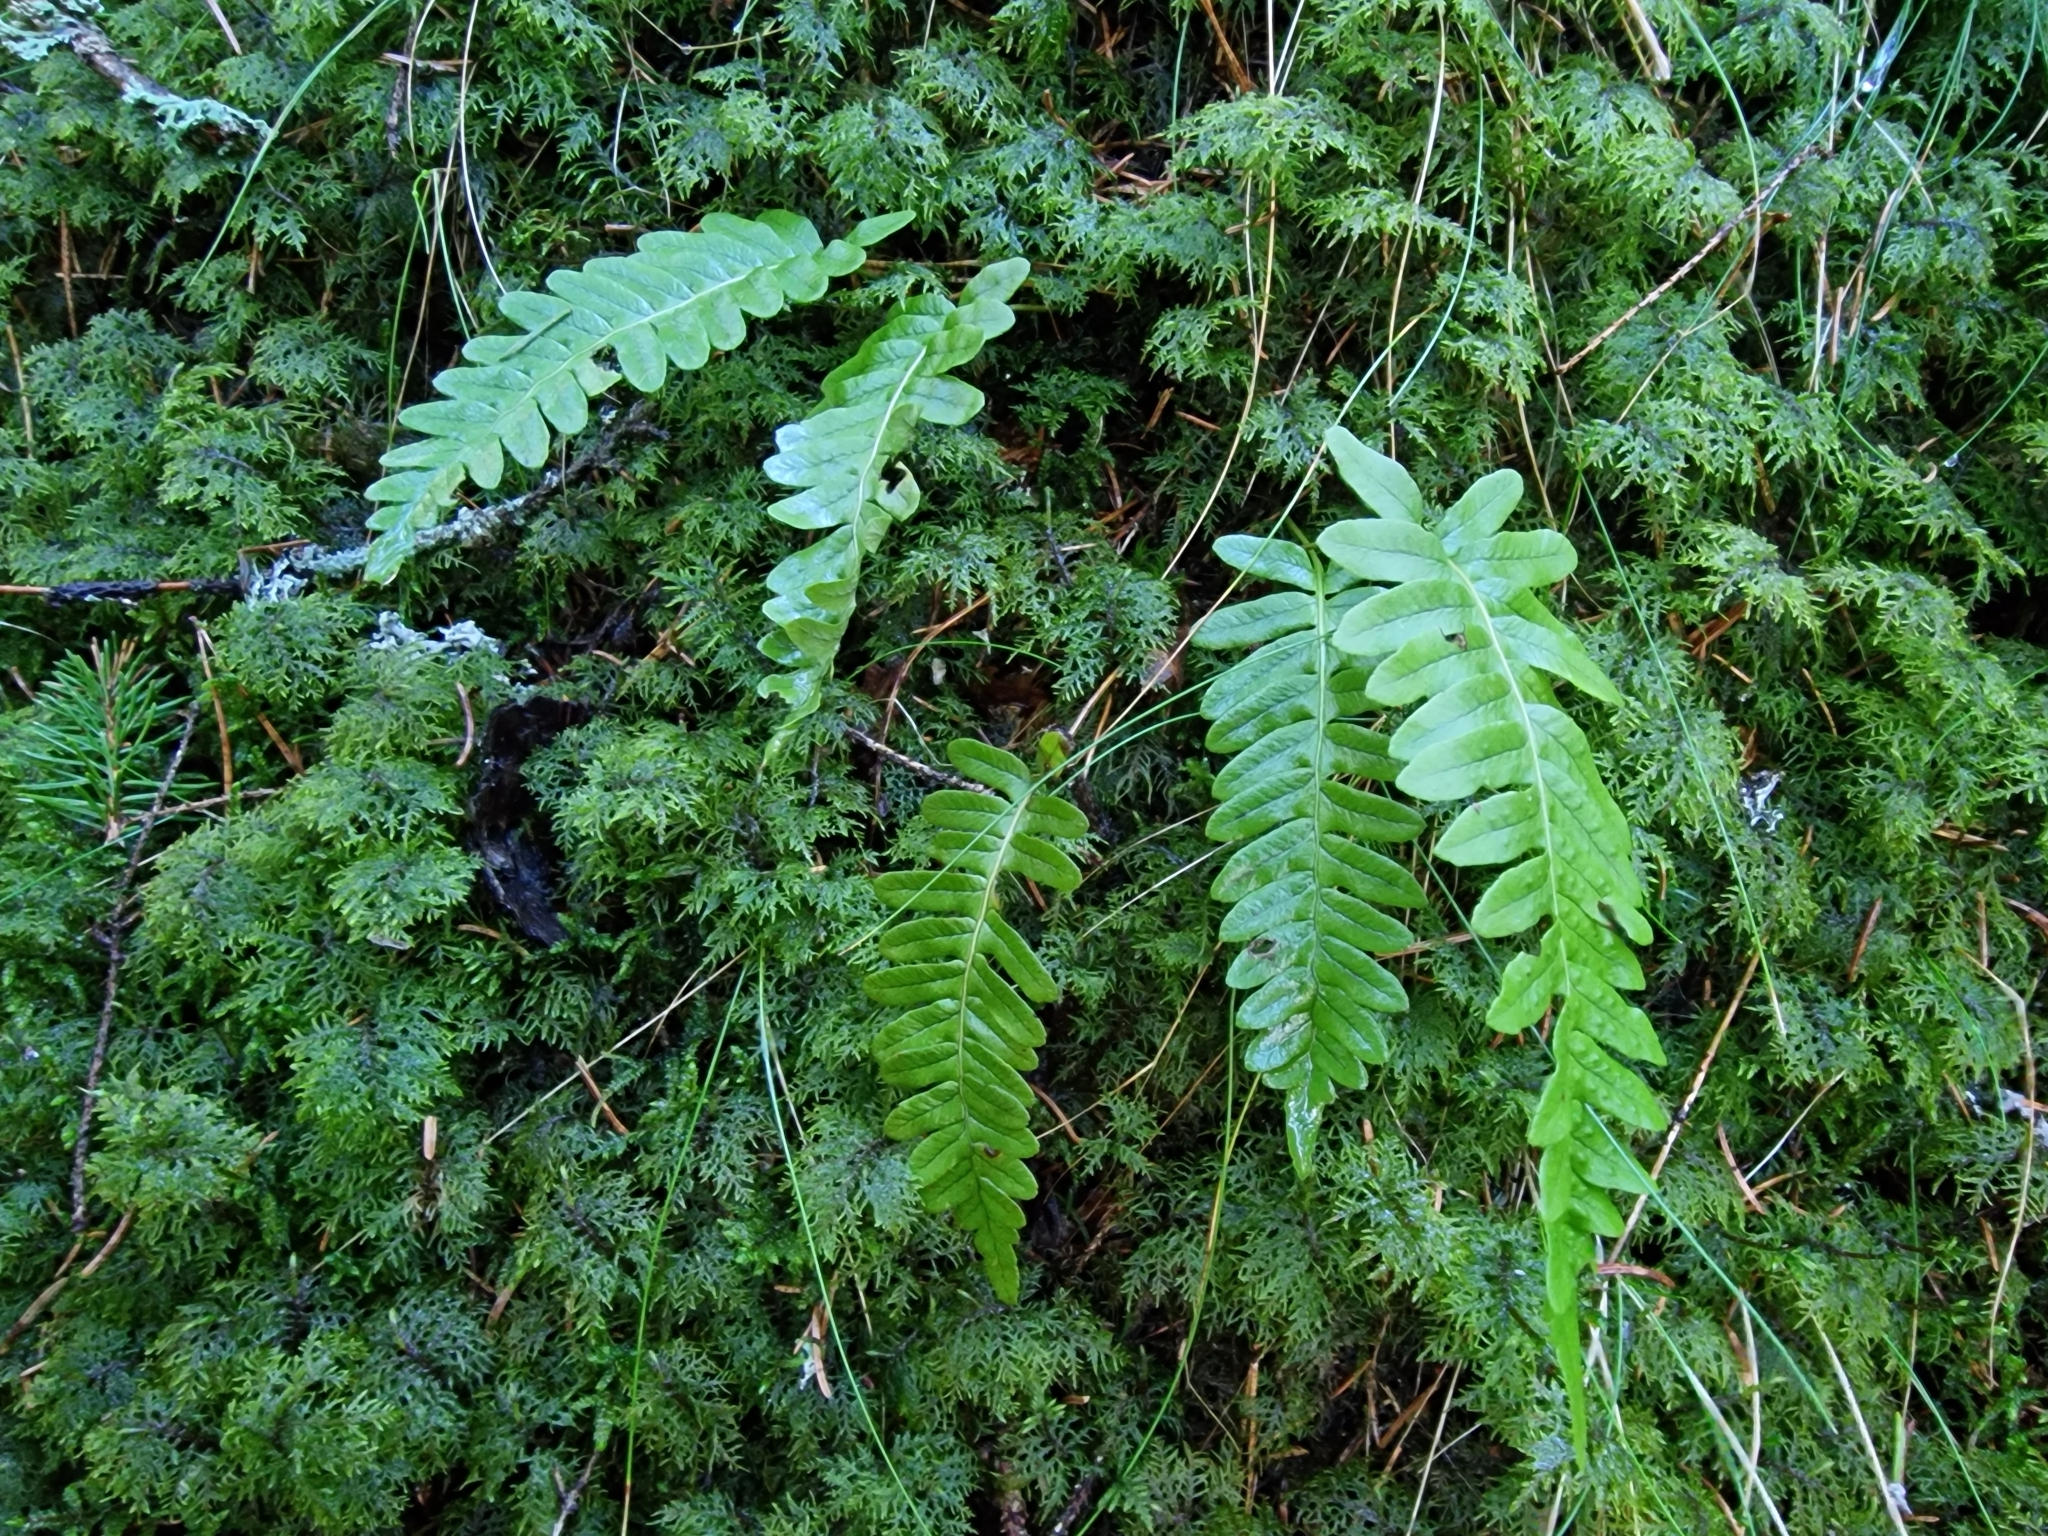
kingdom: Plantae
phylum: Tracheophyta
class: Polypodiopsida
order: Polypodiales
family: Polypodiaceae
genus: Polypodium
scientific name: Polypodium vulgare
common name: Common polypody
